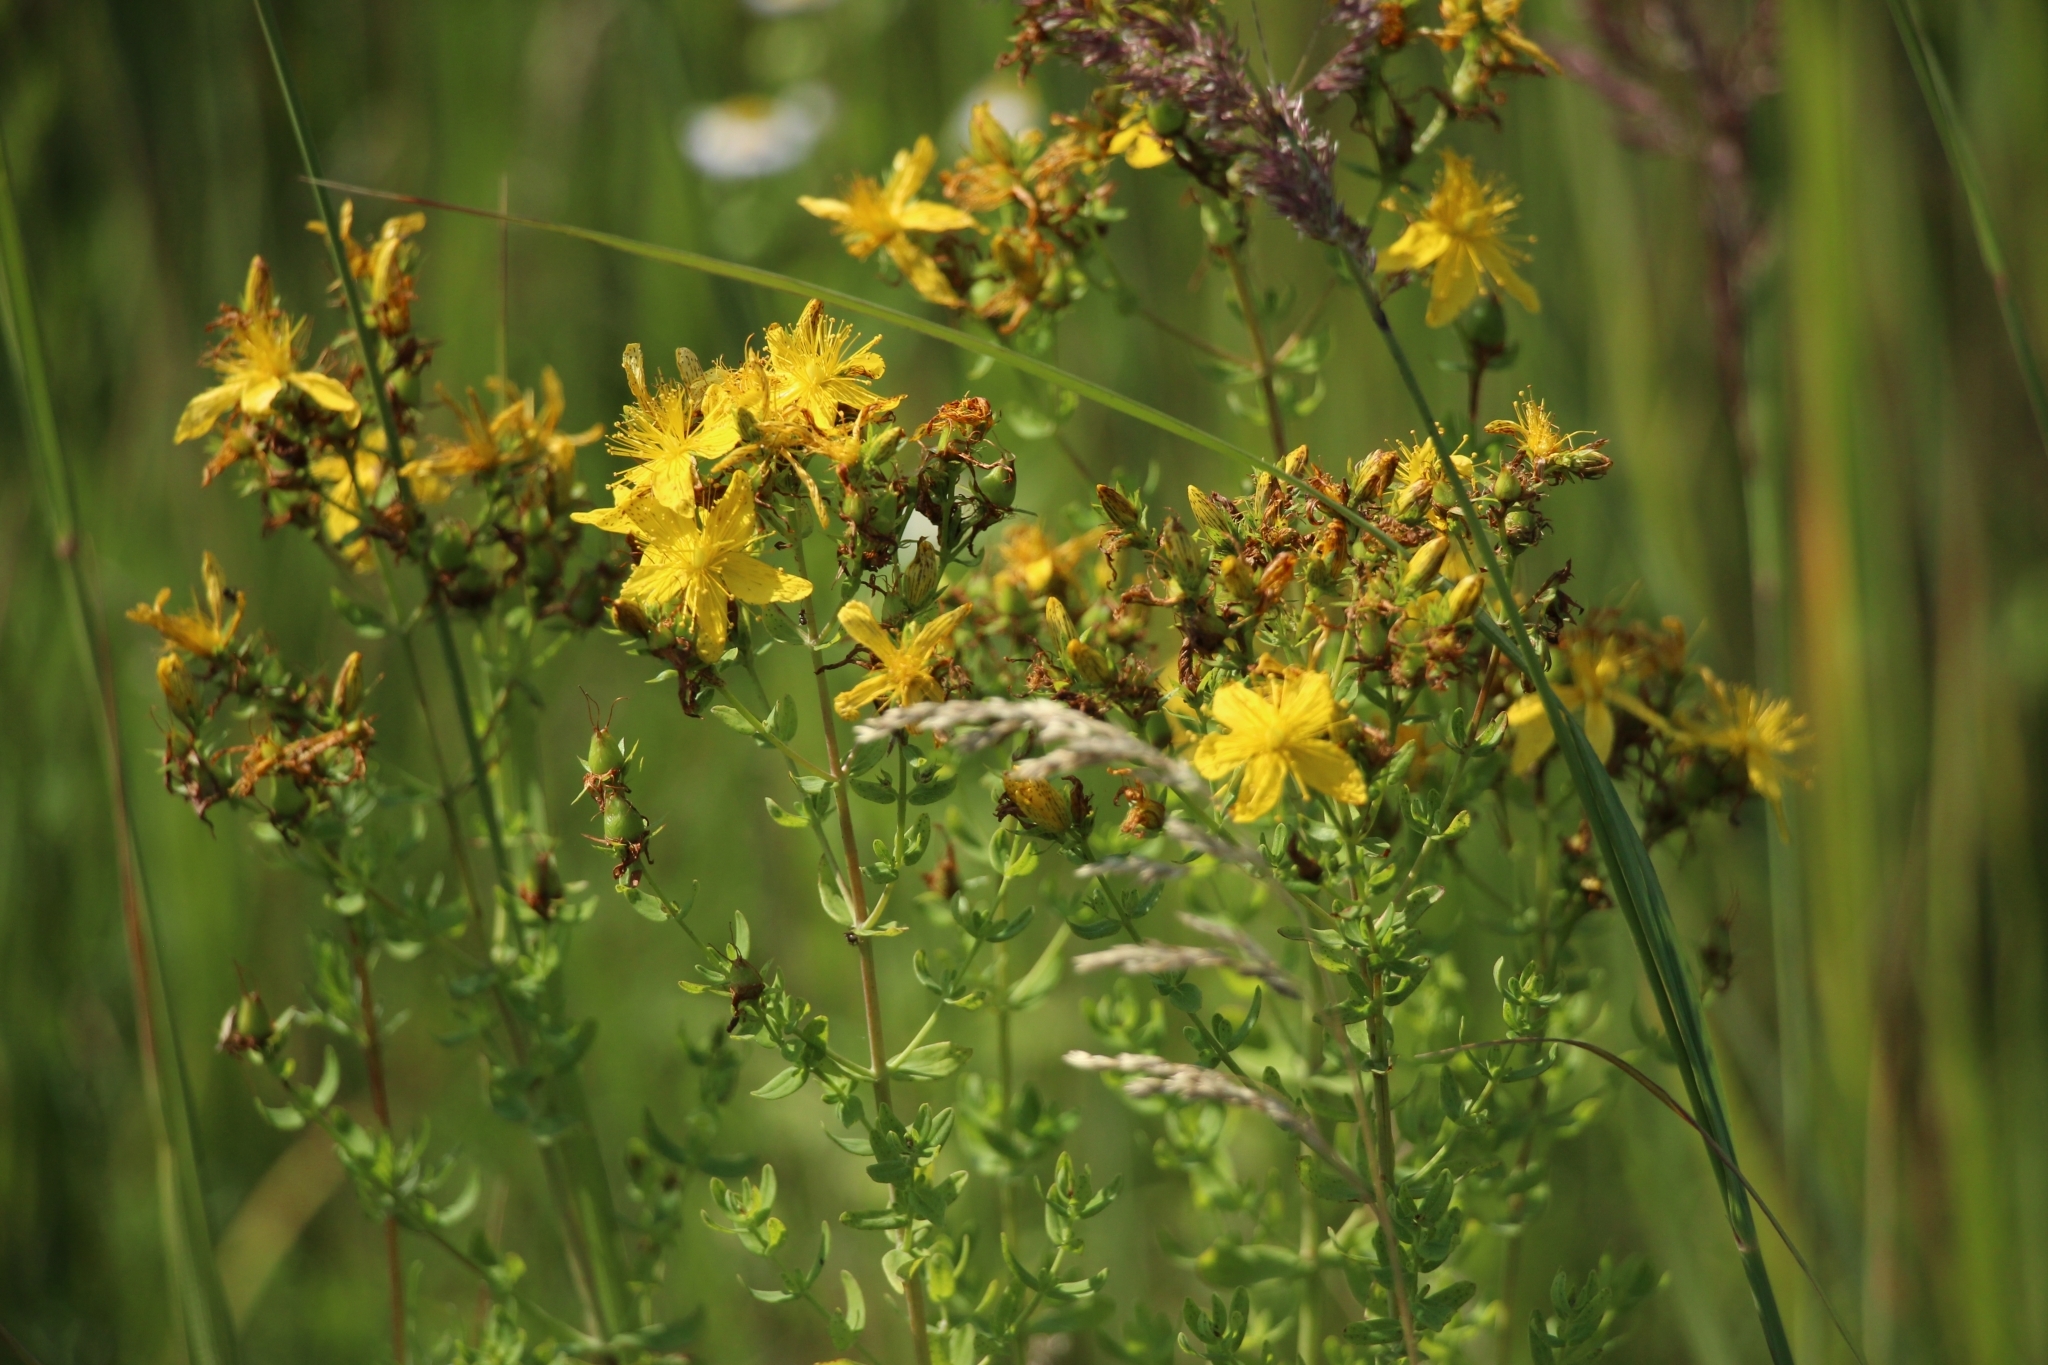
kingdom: Plantae
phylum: Tracheophyta
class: Magnoliopsida
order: Malpighiales
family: Hypericaceae
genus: Hypericum
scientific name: Hypericum perforatum
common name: Common st. johnswort
